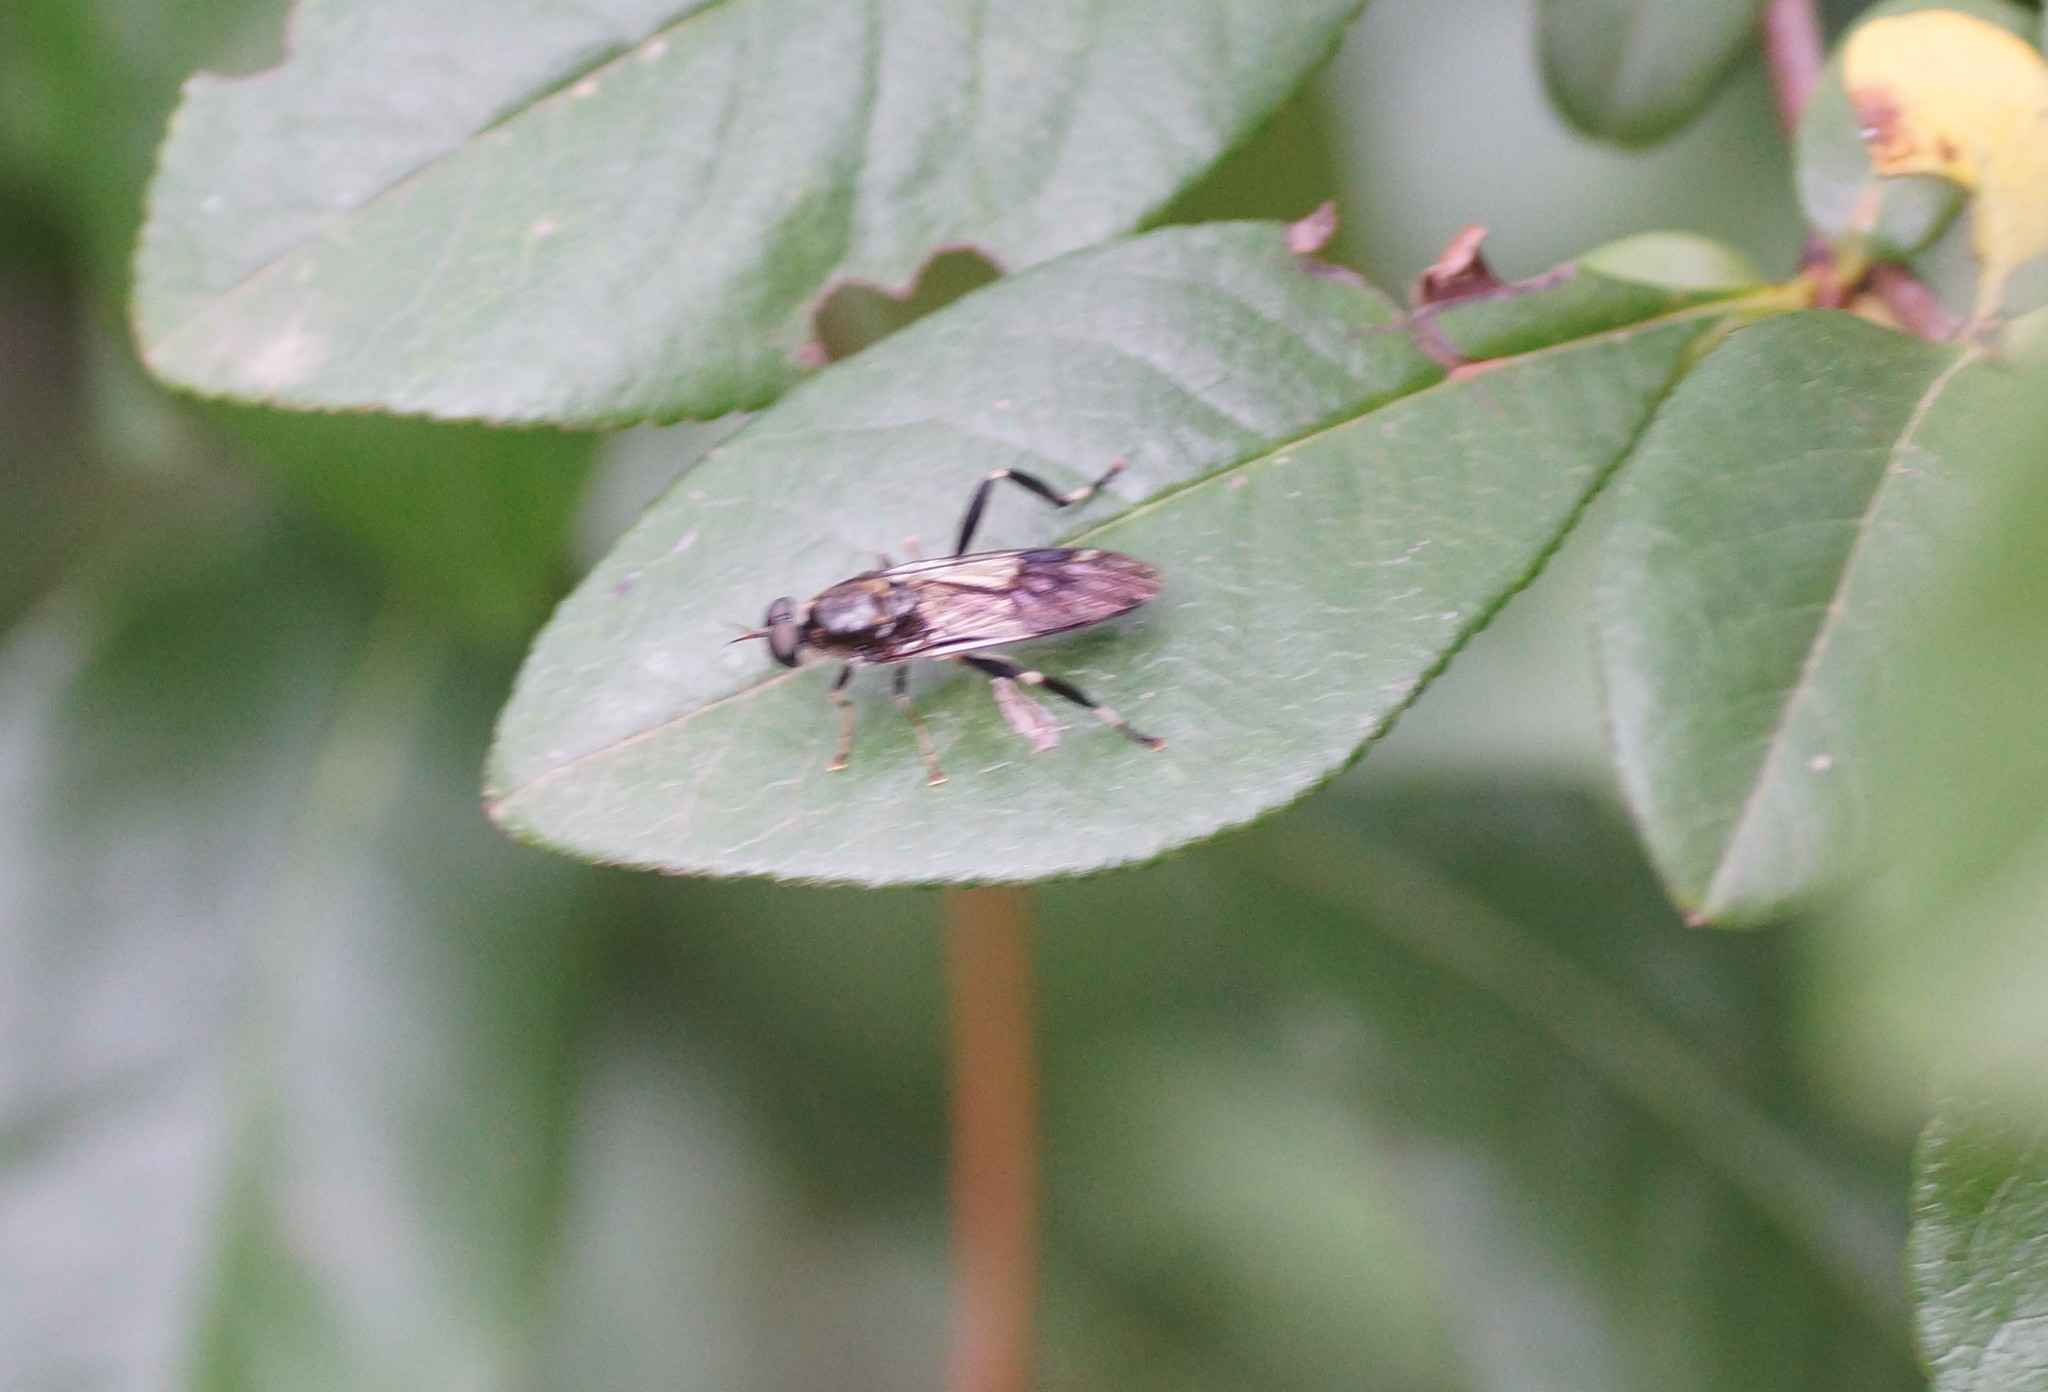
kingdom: Animalia
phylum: Arthropoda
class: Insecta
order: Diptera
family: Stratiomyidae
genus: Exaireta
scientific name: Exaireta spinigera
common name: Blue soldier fly
